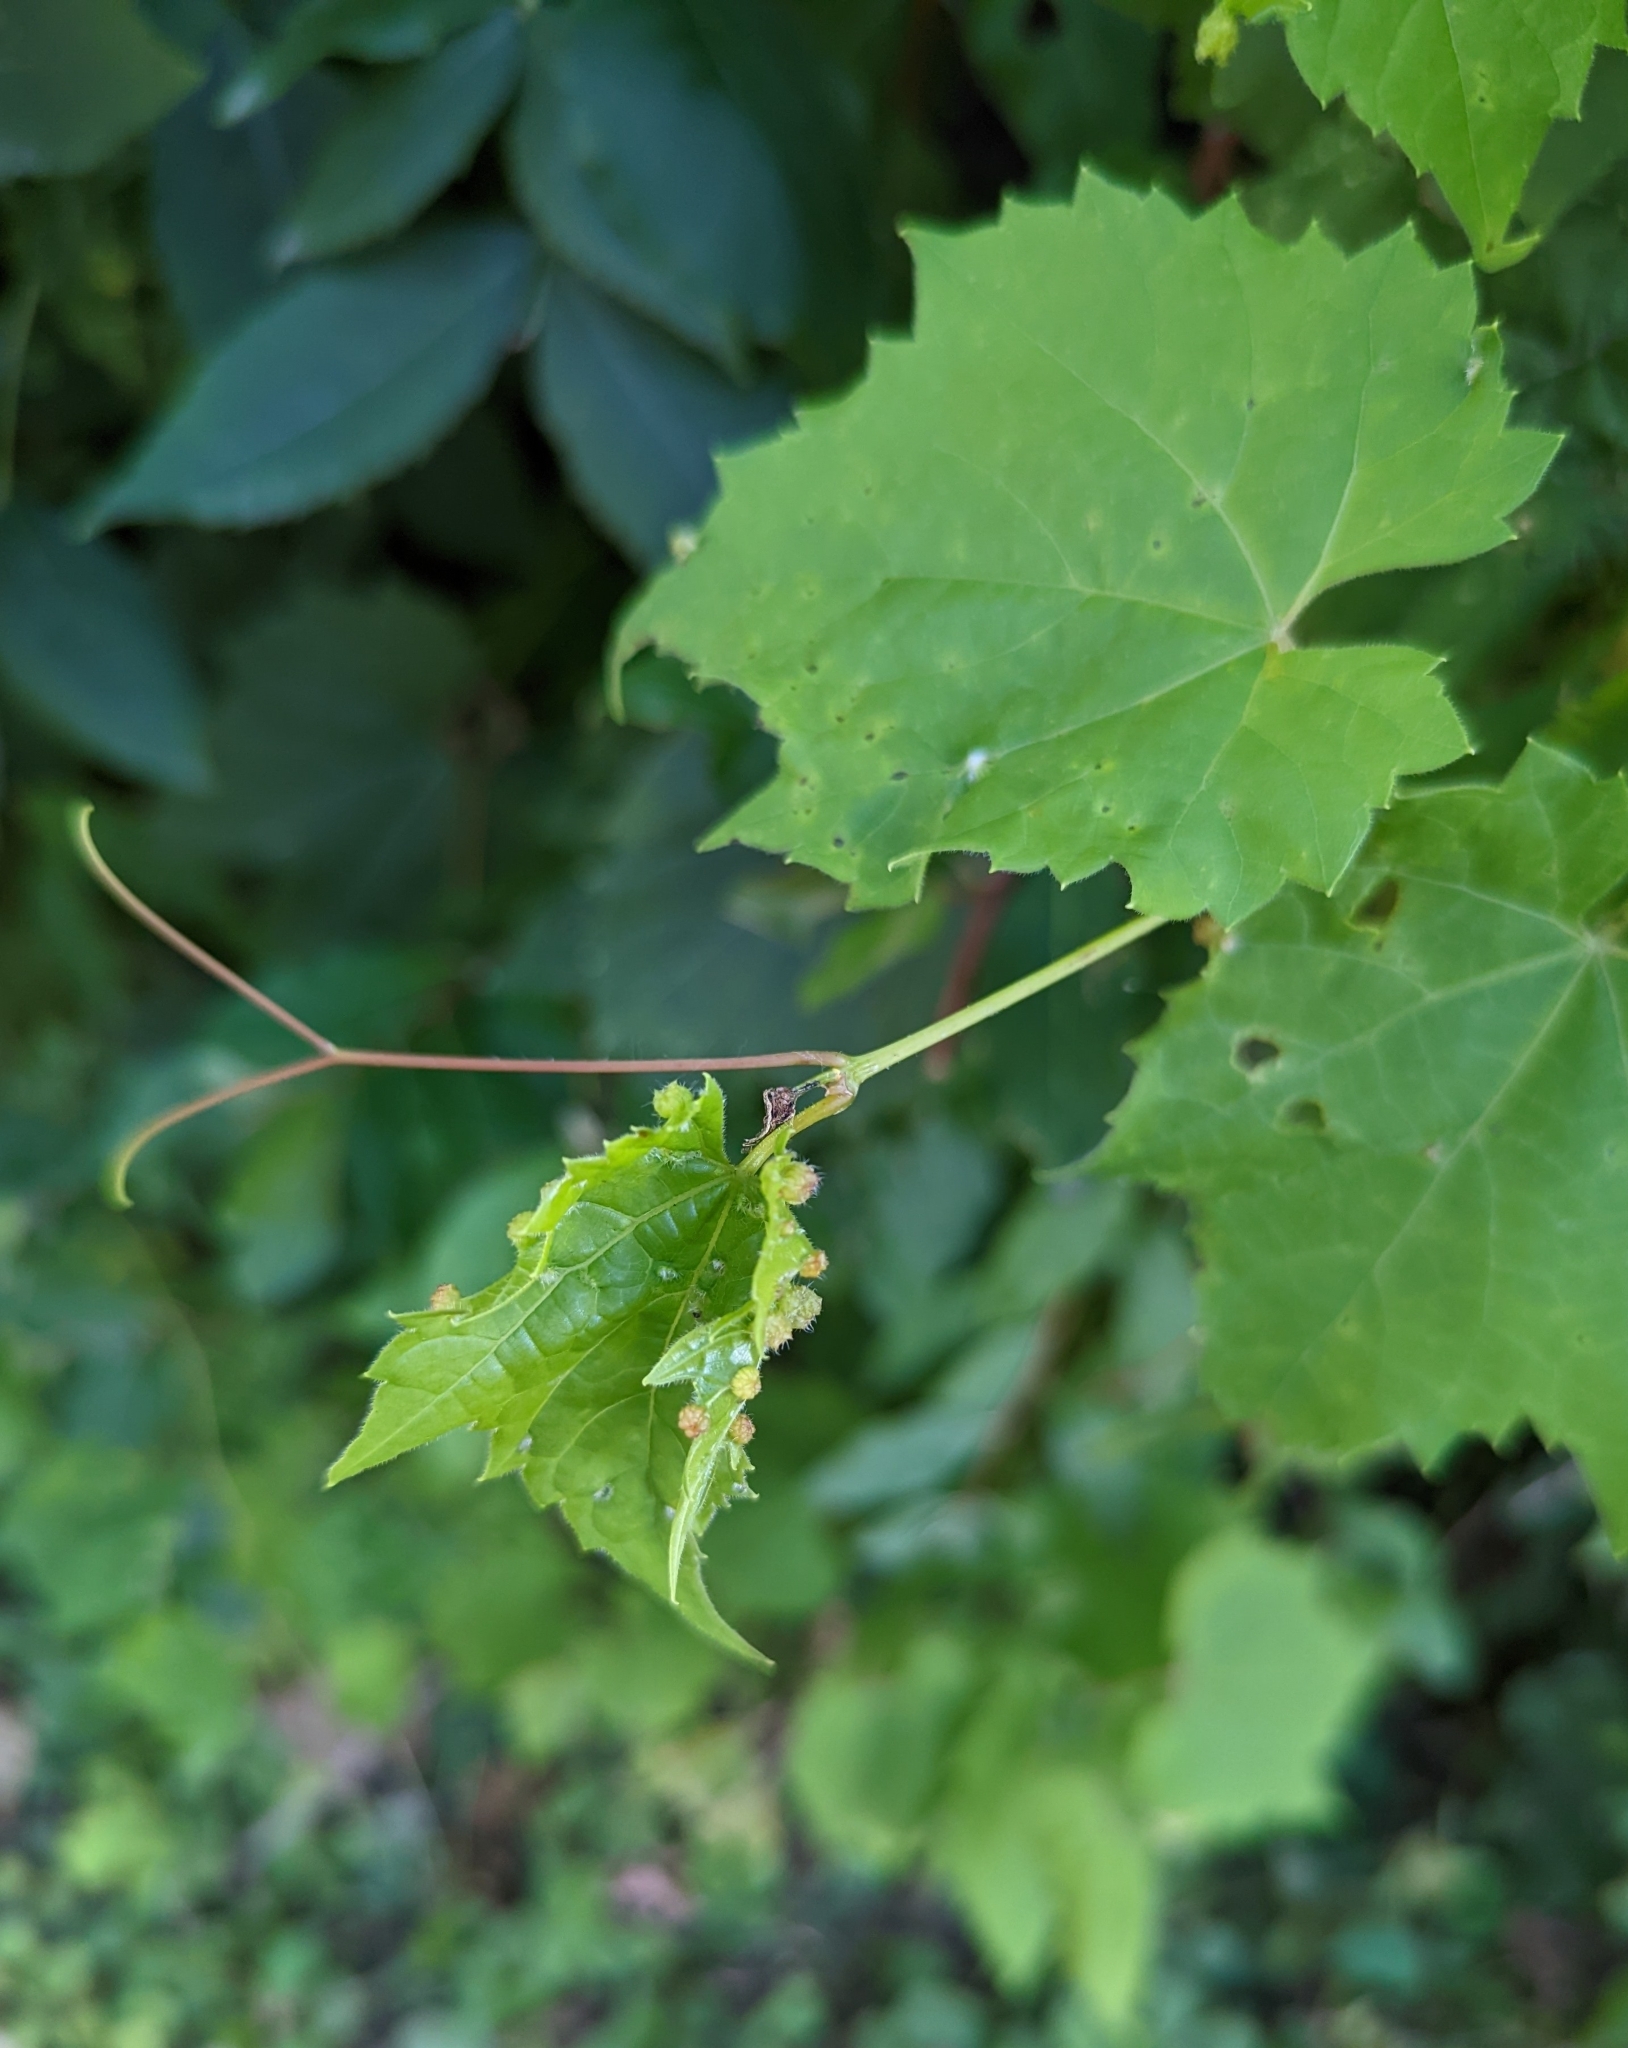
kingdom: Animalia
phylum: Arthropoda
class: Insecta
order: Hemiptera
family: Phylloxeridae
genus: Daktulosphaira
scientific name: Daktulosphaira vitifoliae
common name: Grape phylloxera
